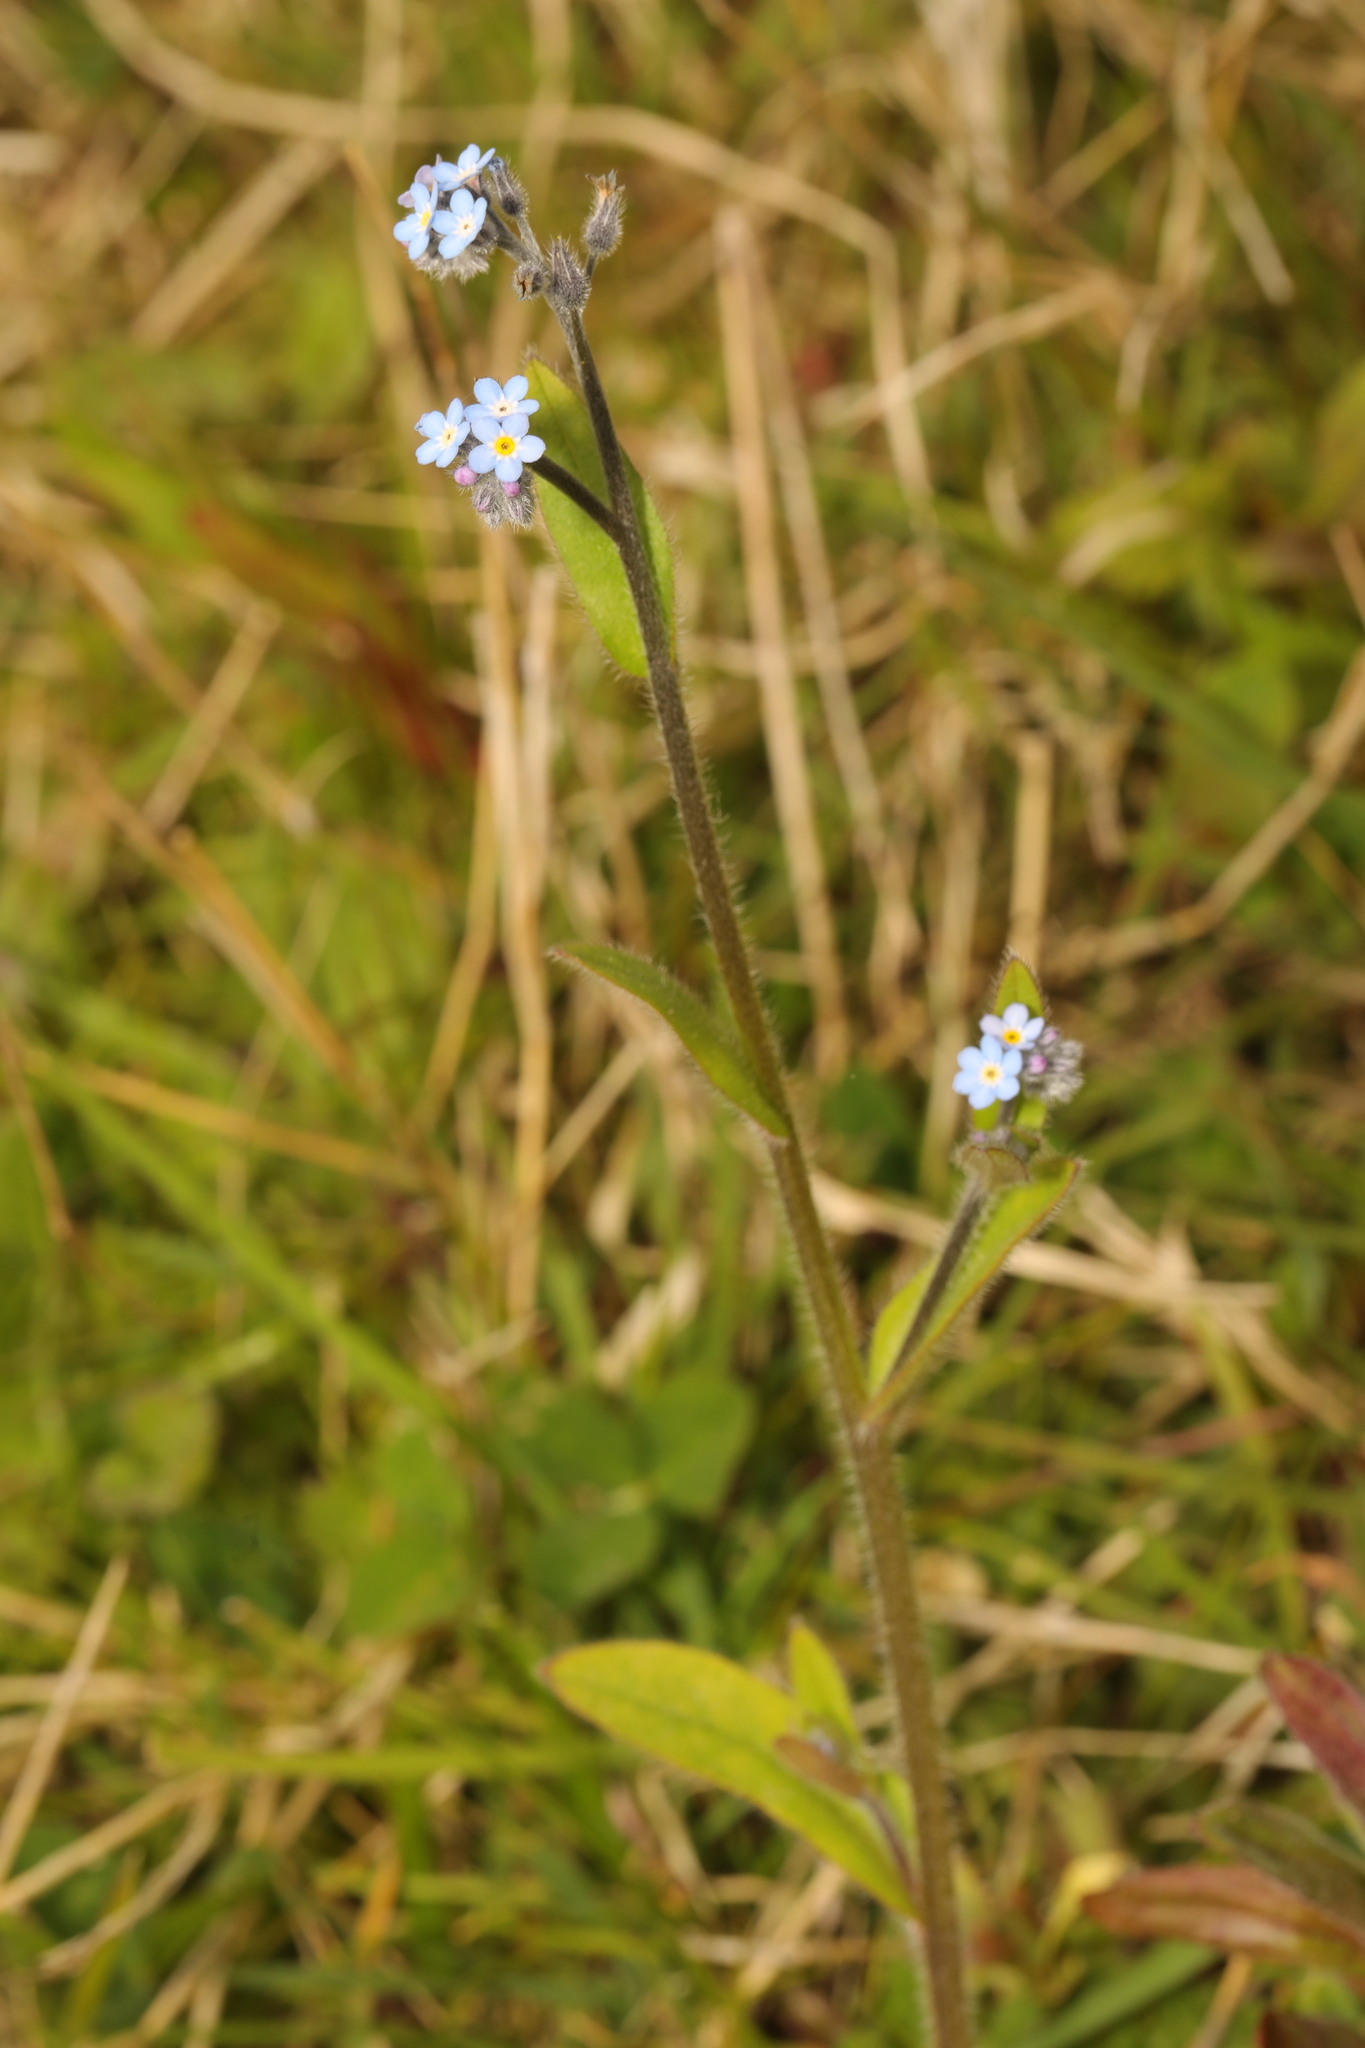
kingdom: Plantae
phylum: Tracheophyta
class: Magnoliopsida
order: Boraginales
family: Boraginaceae
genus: Myosotis
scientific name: Myosotis arvensis
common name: Field forget-me-not
